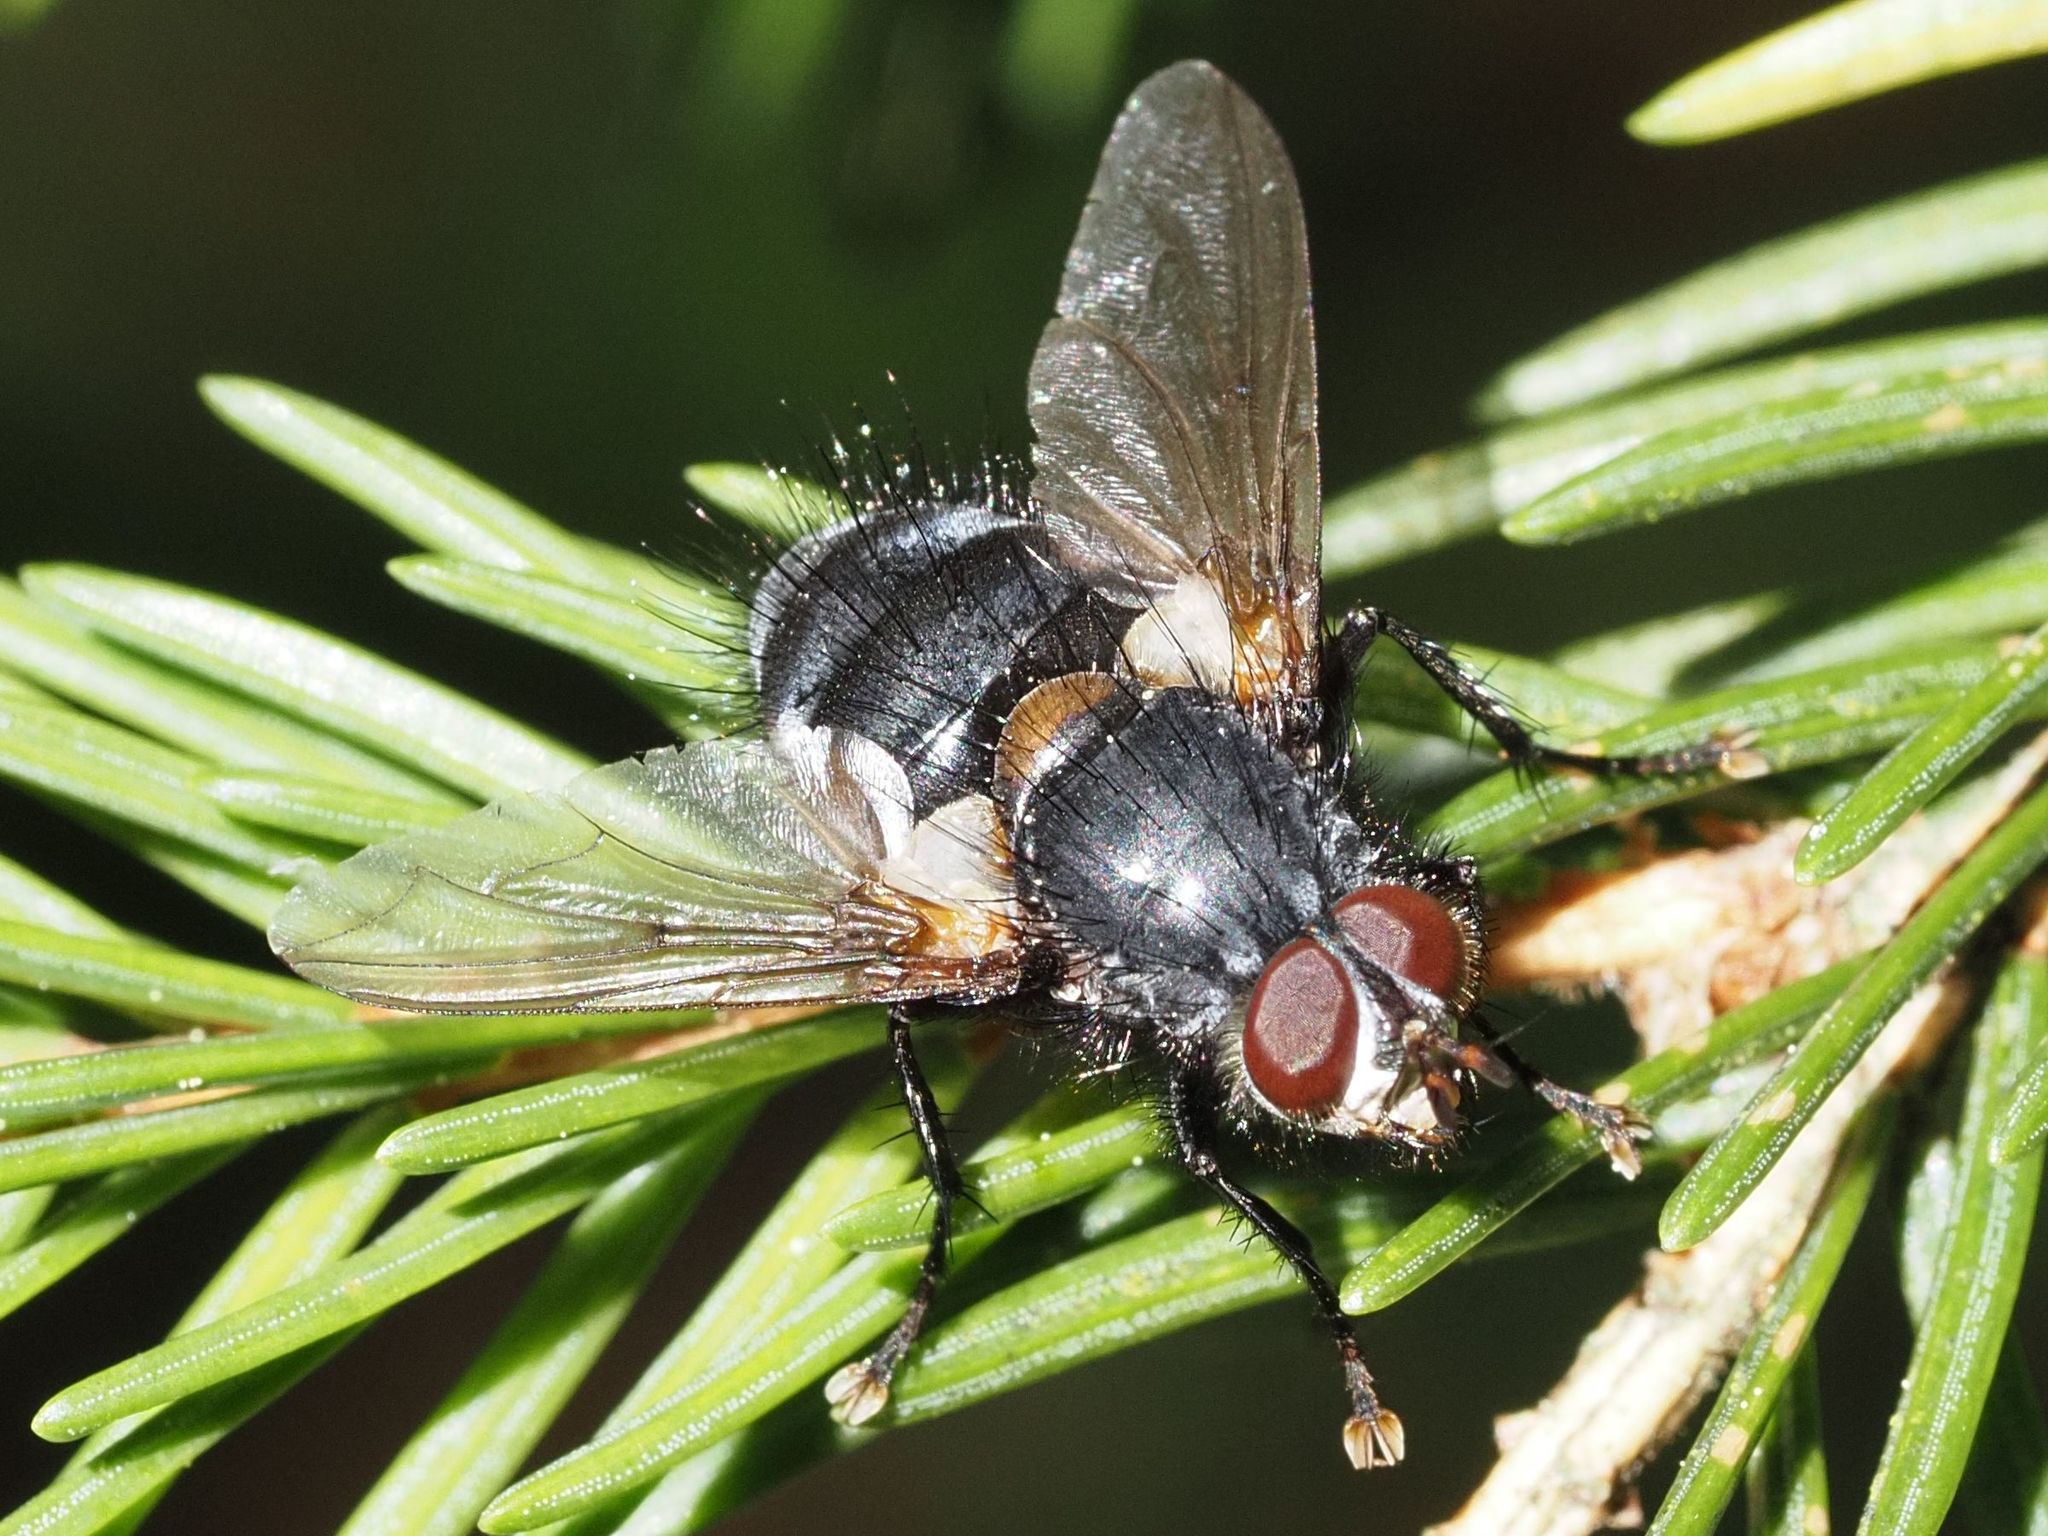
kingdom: Animalia
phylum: Arthropoda
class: Insecta
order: Diptera
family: Tachinidae
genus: Panzeria
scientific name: Panzeria rudis
